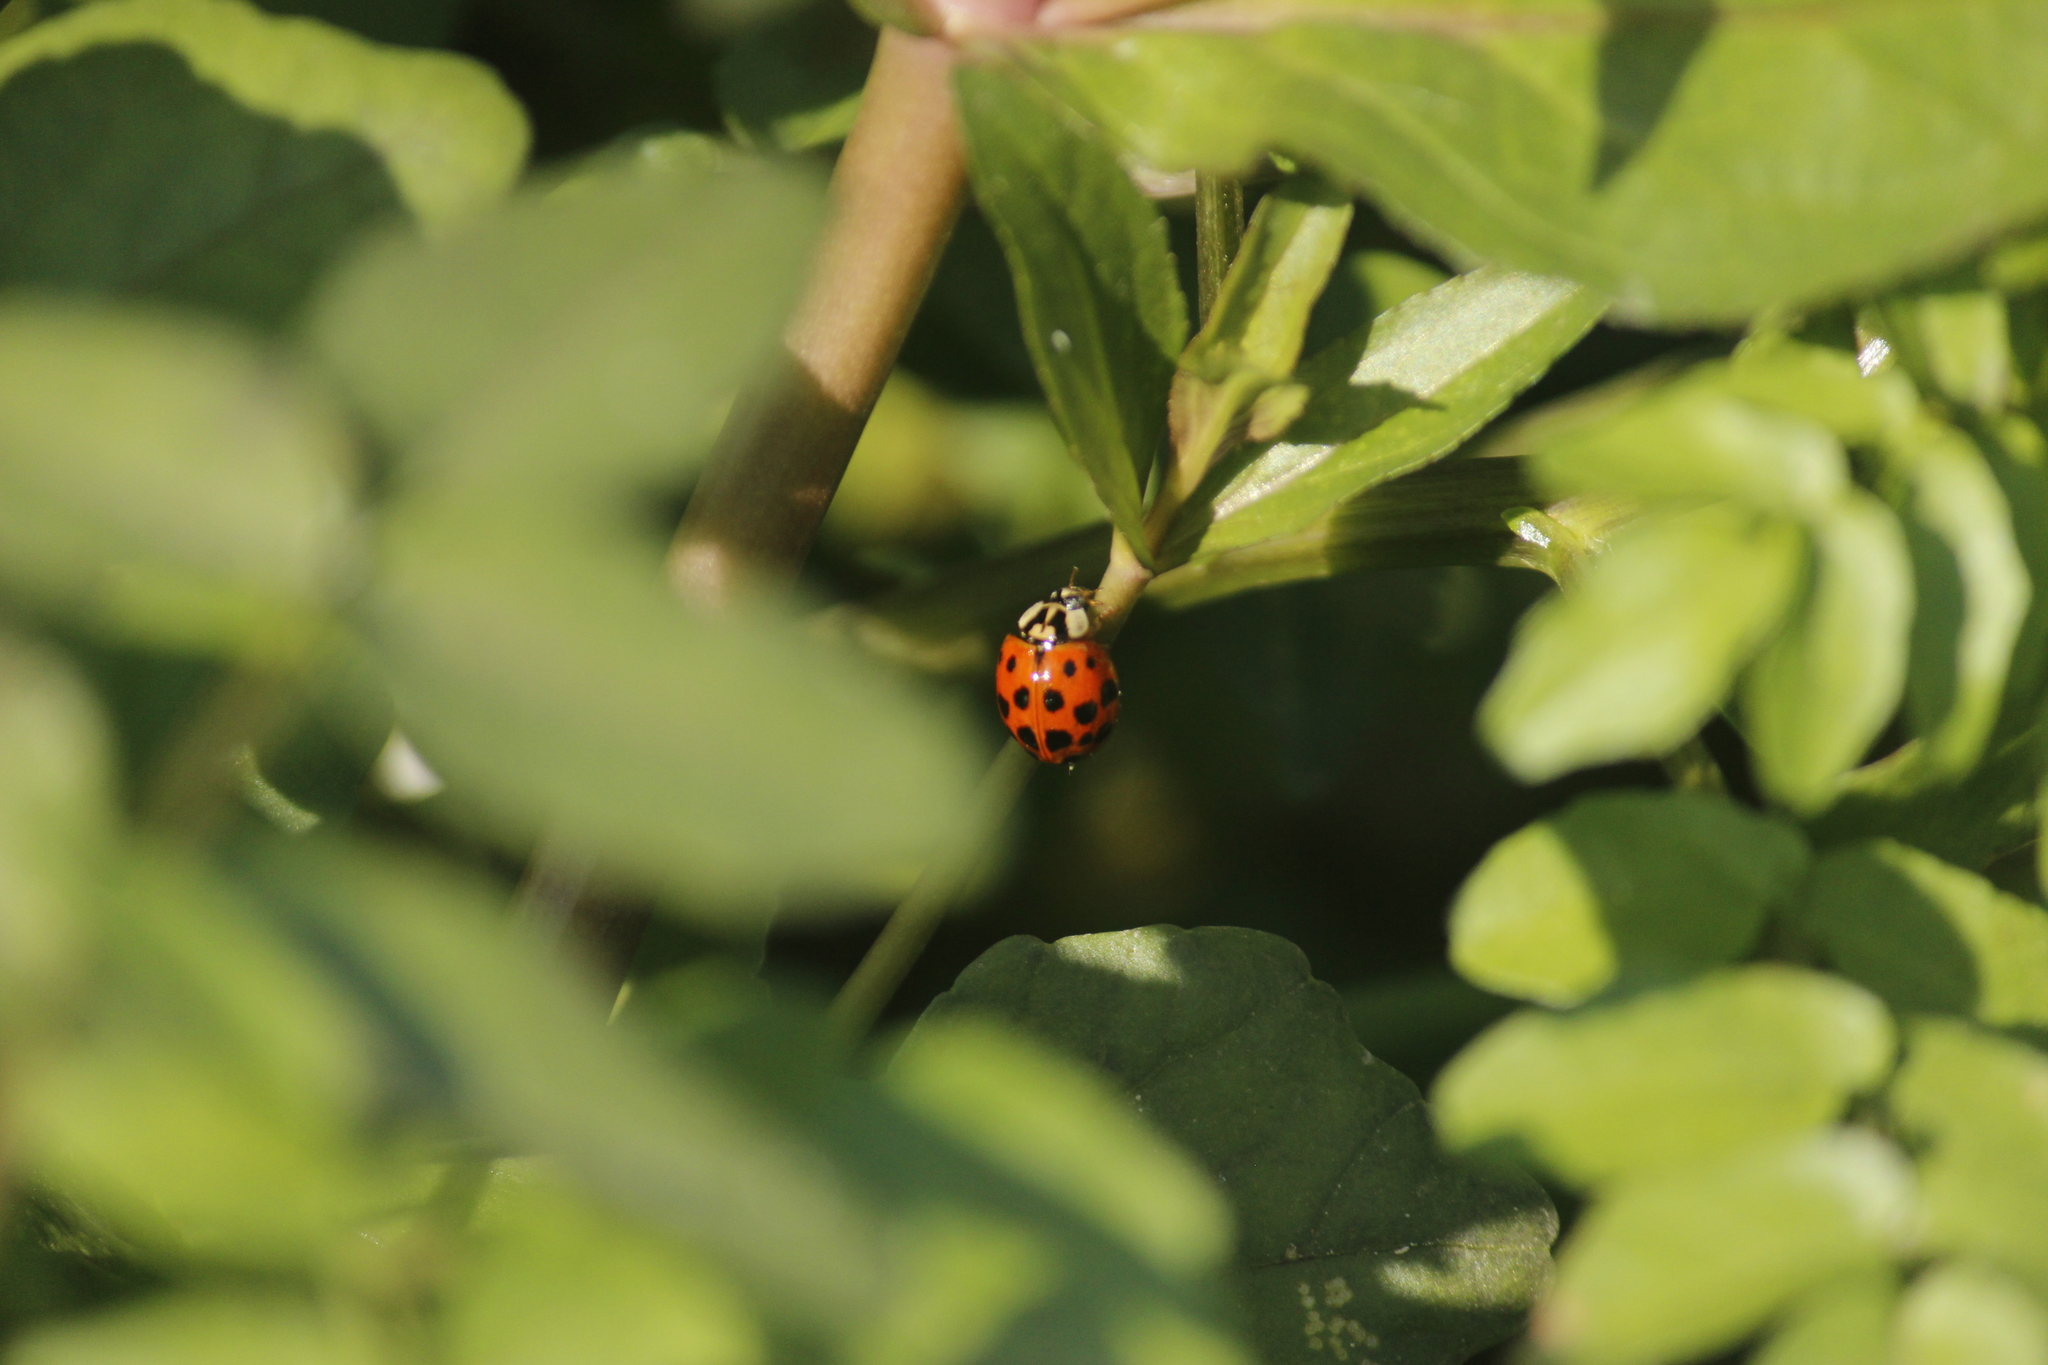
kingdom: Animalia
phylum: Arthropoda
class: Insecta
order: Coleoptera
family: Coccinellidae
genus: Harmonia
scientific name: Harmonia axyridis
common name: Harlequin ladybird
